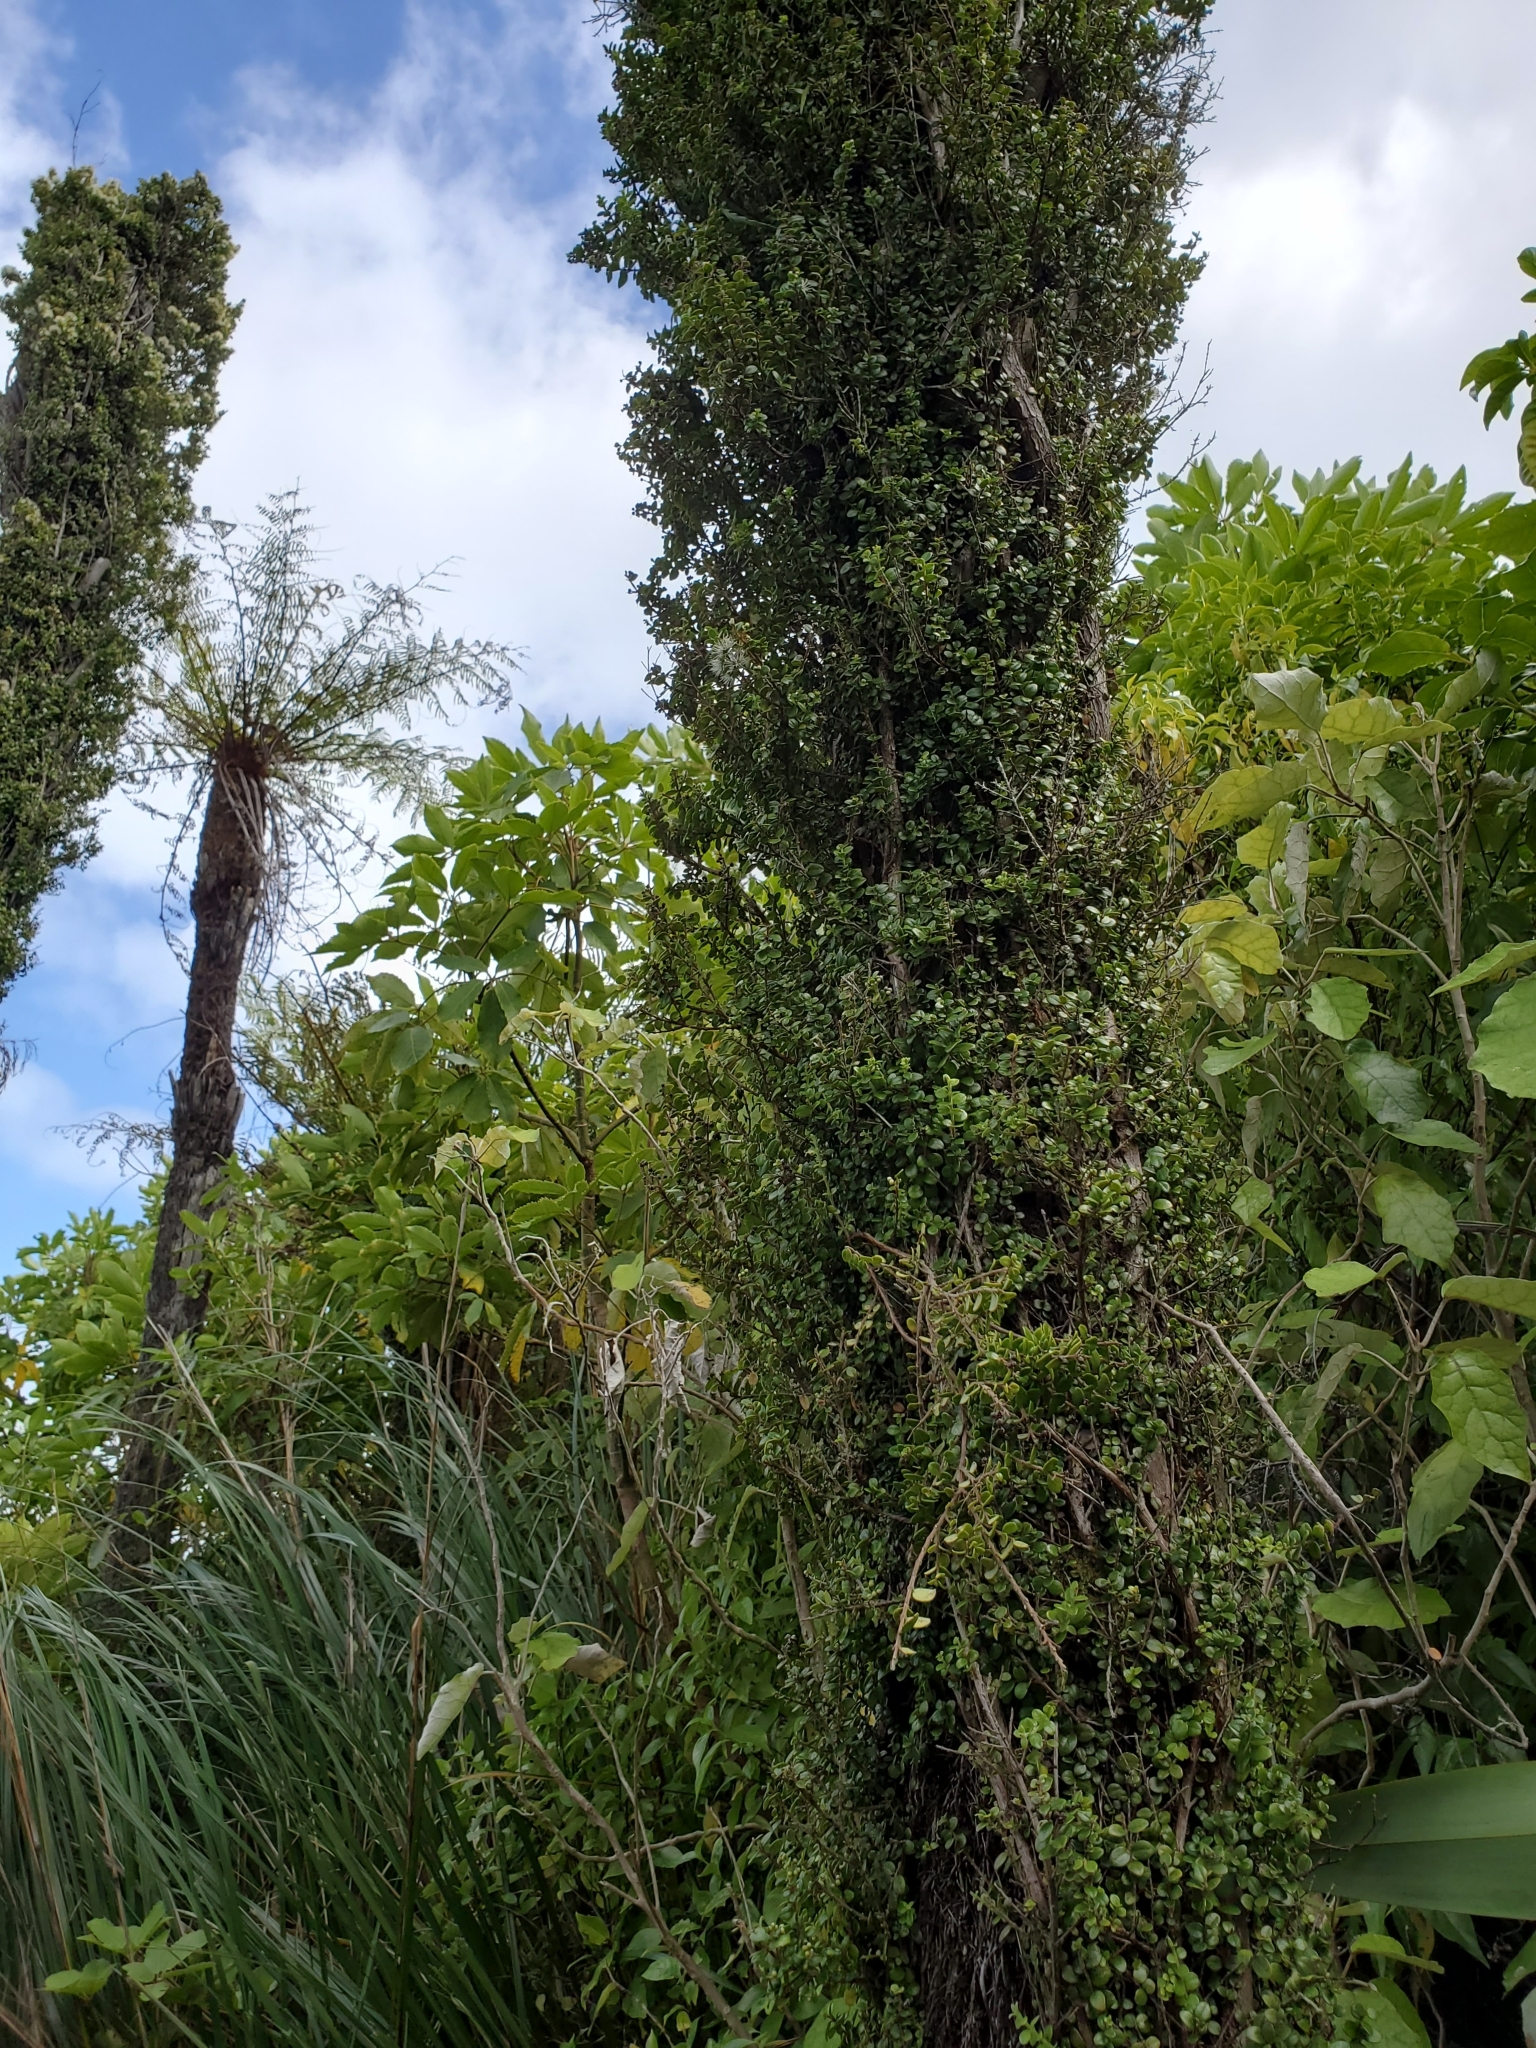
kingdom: Plantae
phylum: Tracheophyta
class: Magnoliopsida
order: Myrtales
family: Myrtaceae
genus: Metrosideros
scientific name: Metrosideros diffusa
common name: Small ratavine
